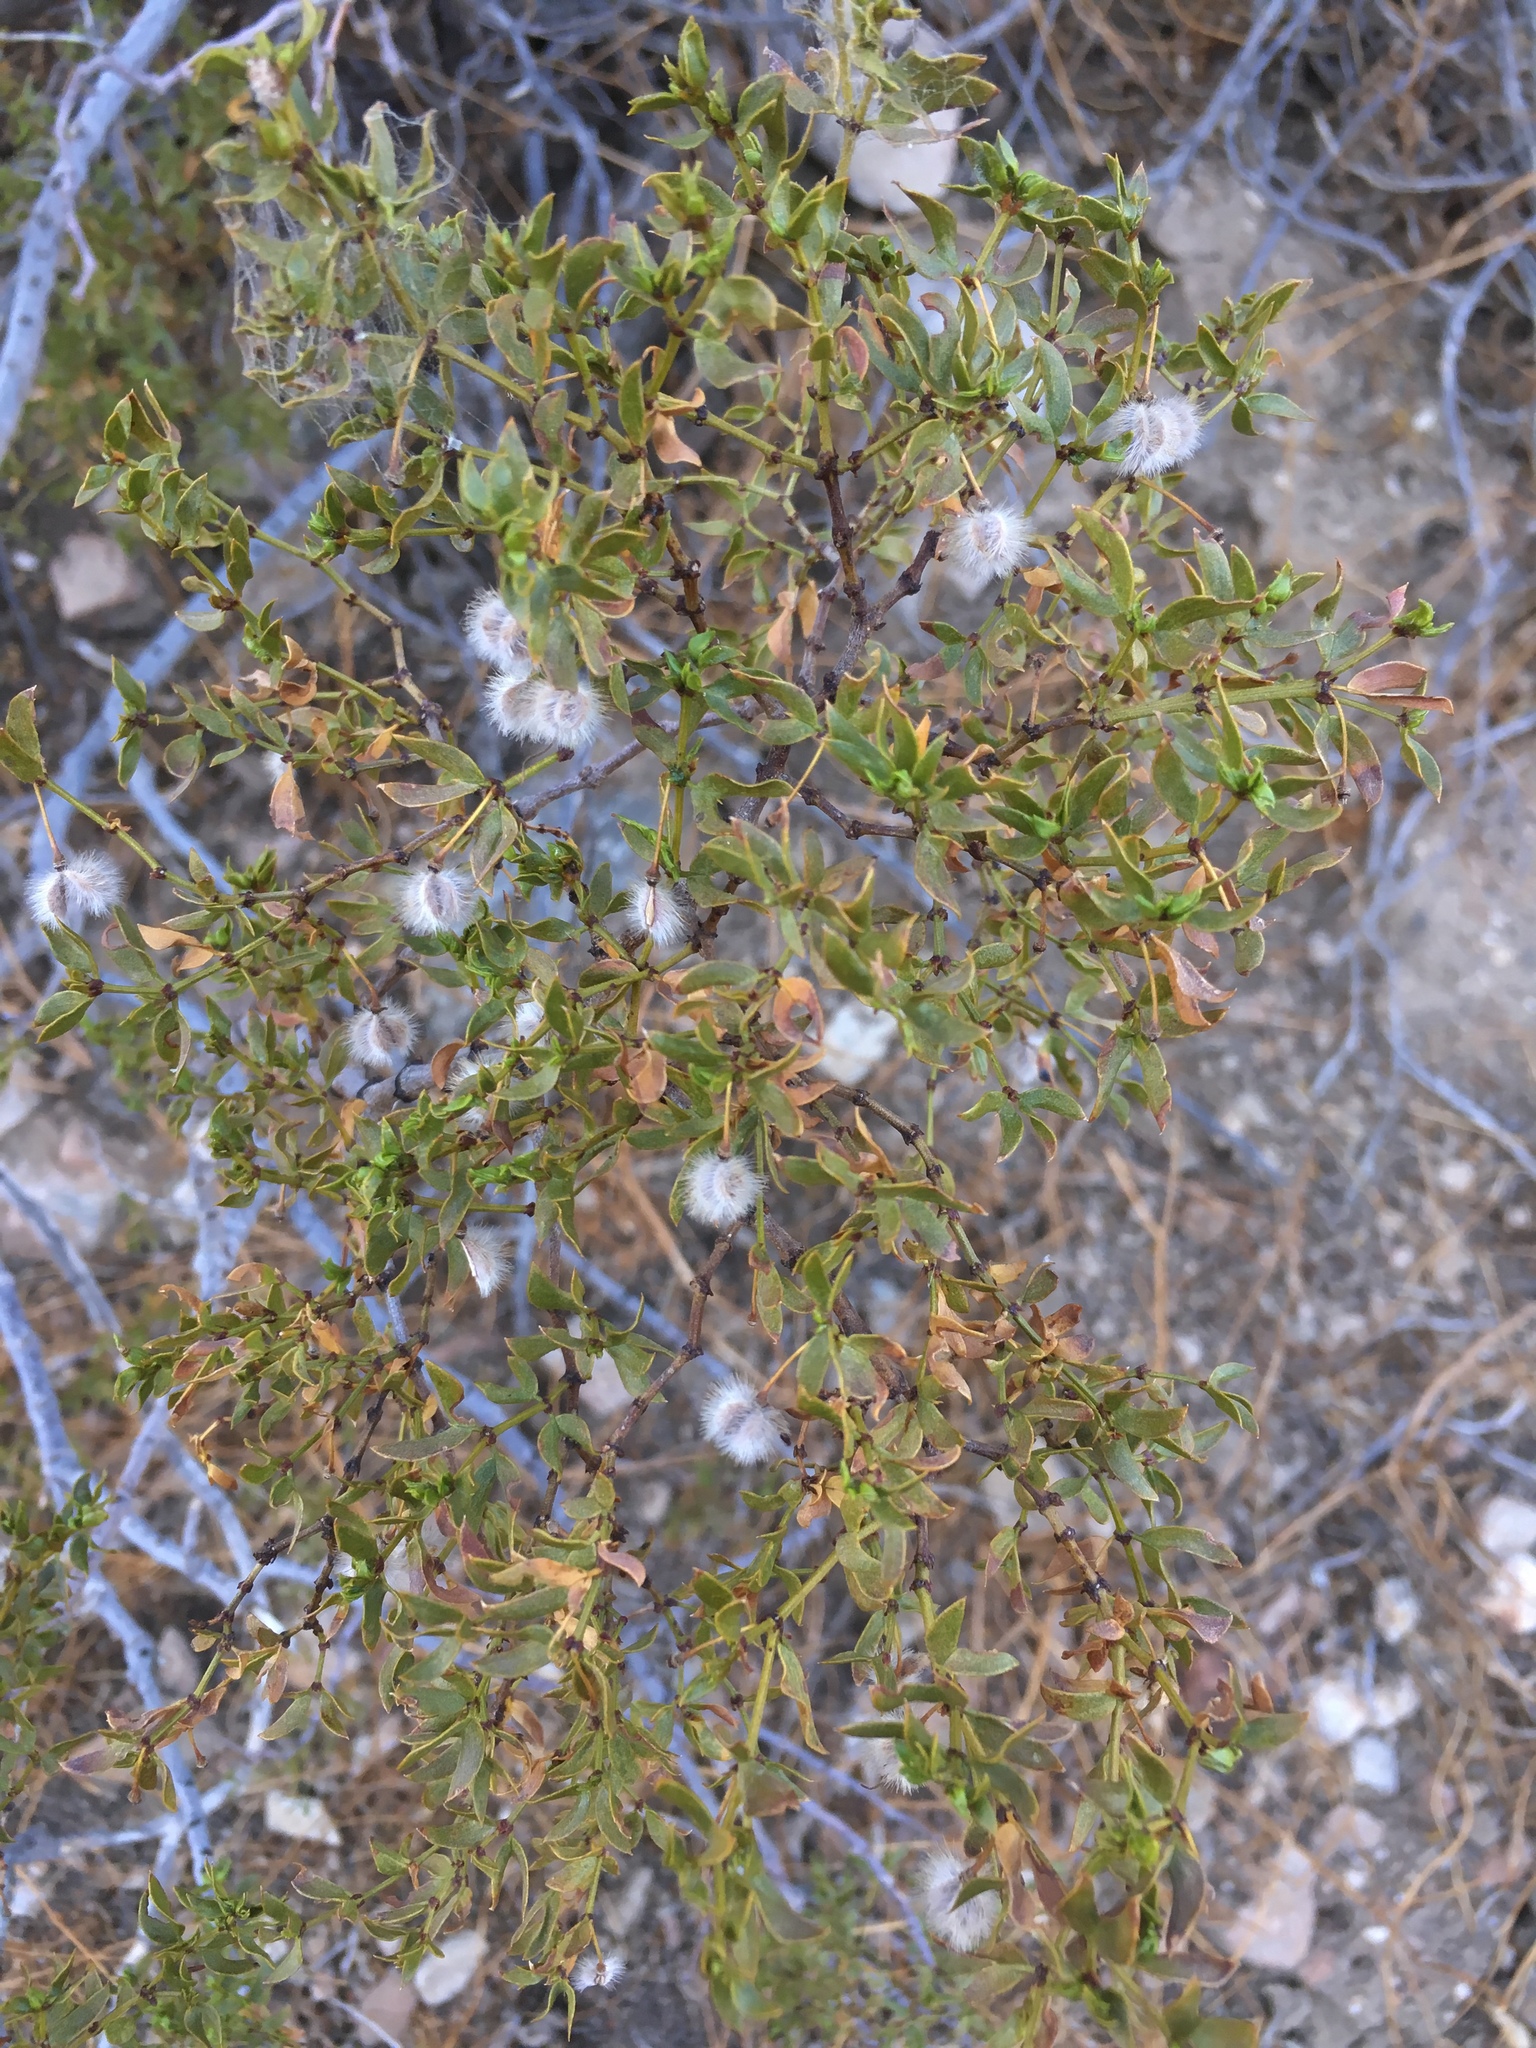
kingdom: Plantae
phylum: Tracheophyta
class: Magnoliopsida
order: Zygophyllales
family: Zygophyllaceae
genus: Larrea
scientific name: Larrea tridentata
